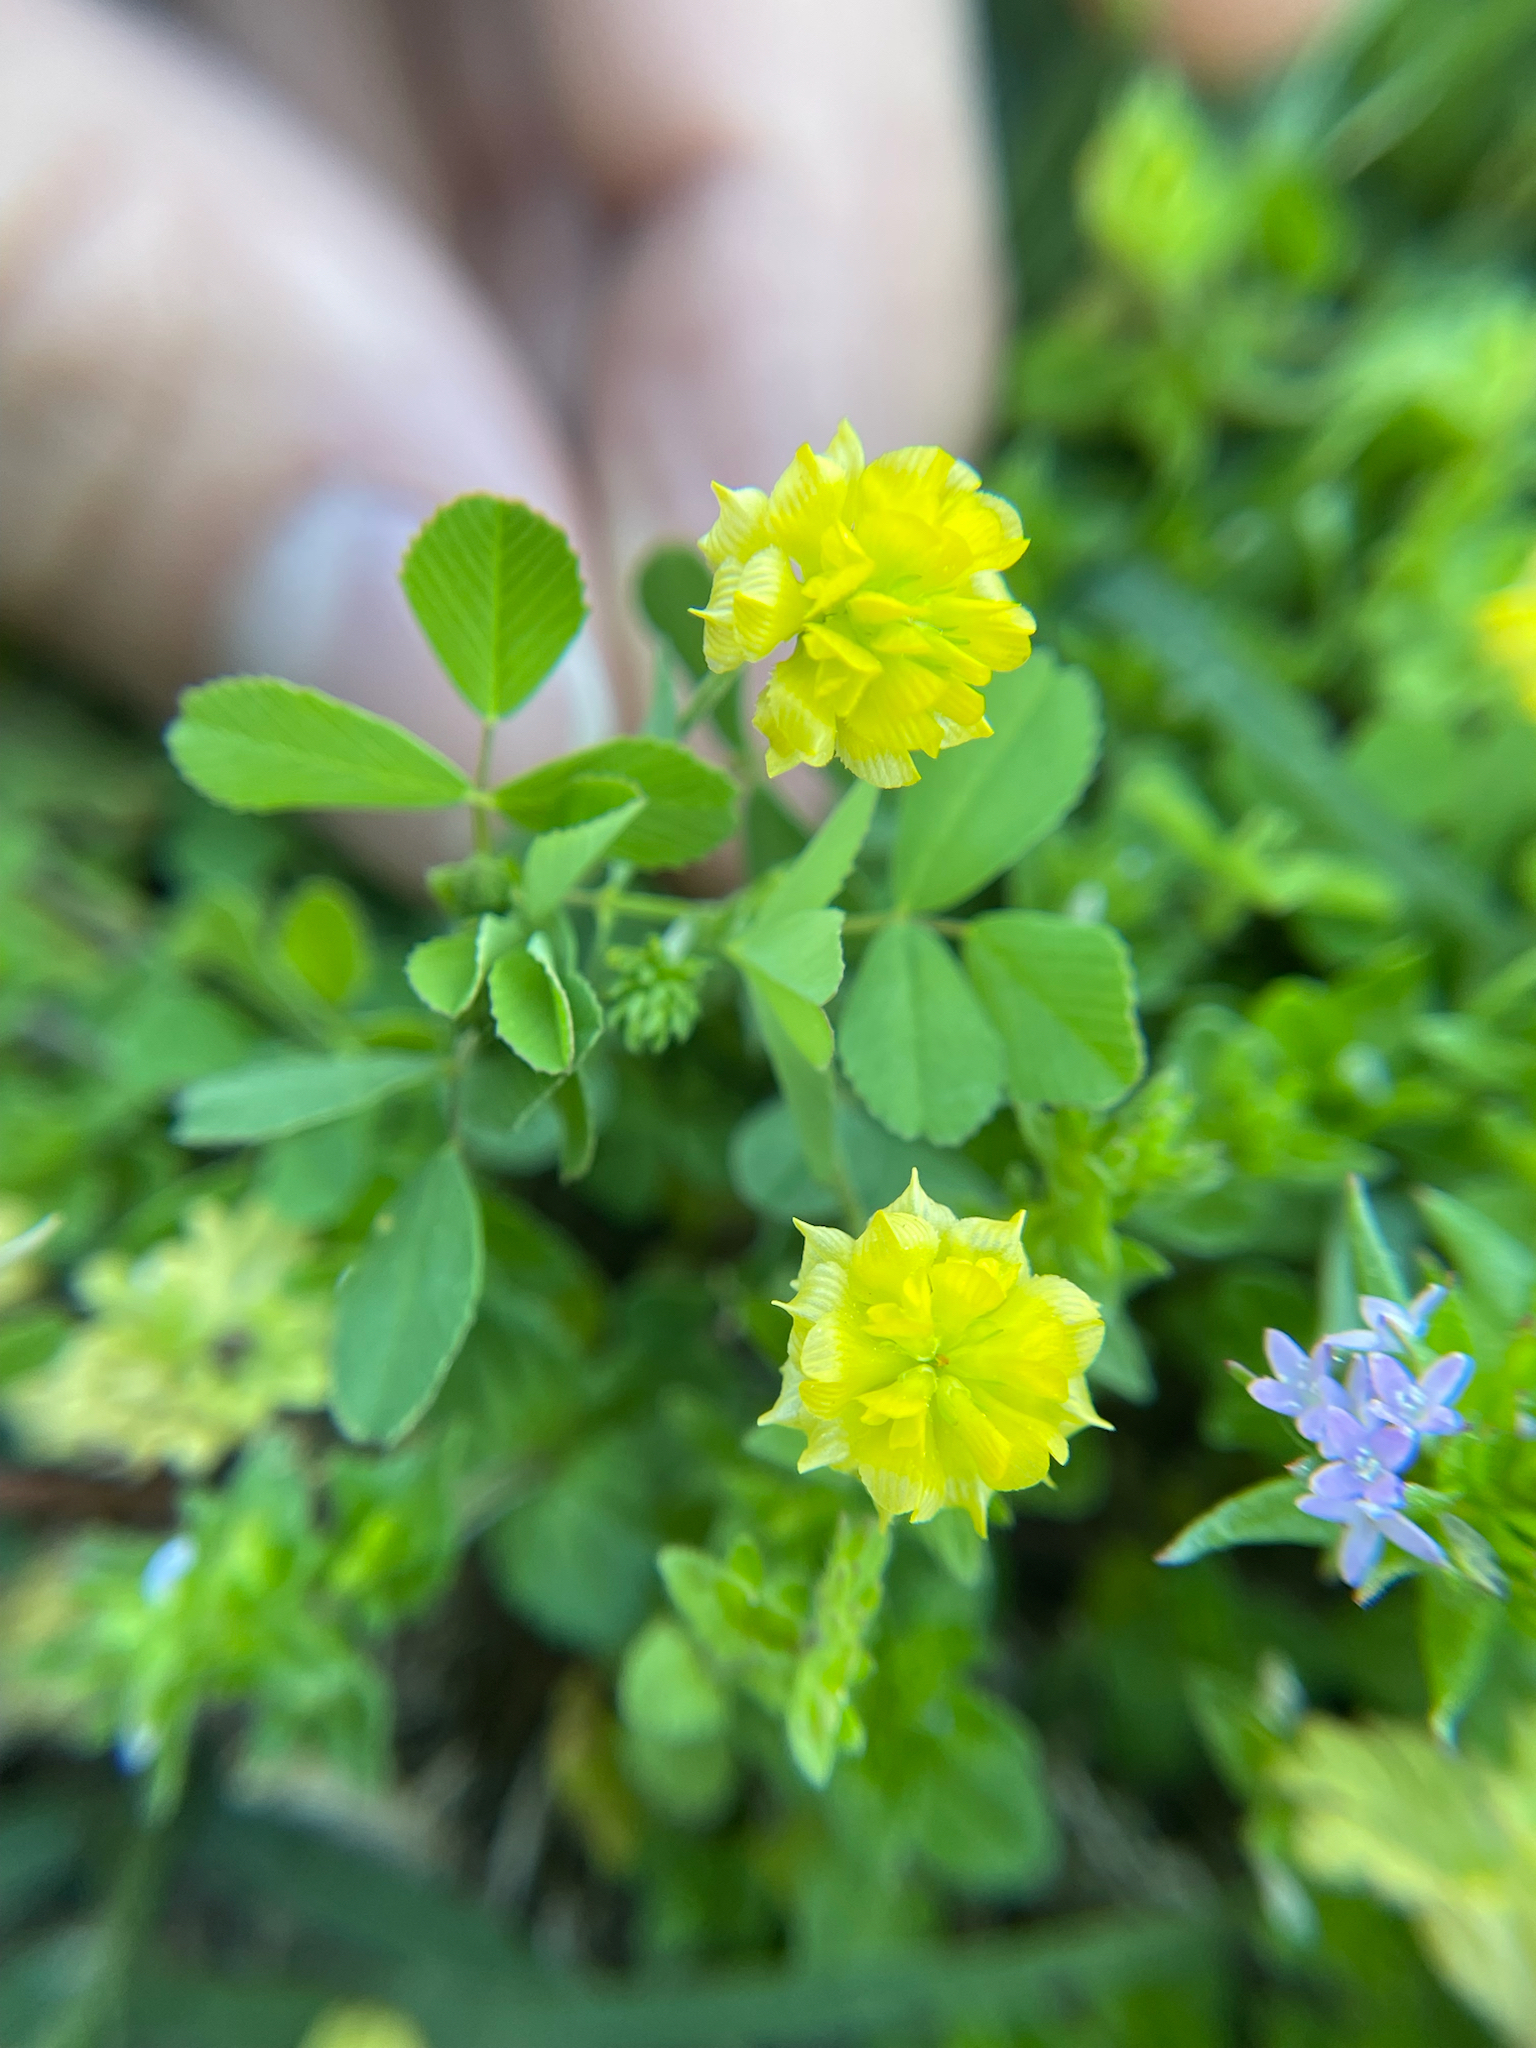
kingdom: Plantae
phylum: Tracheophyta
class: Magnoliopsida
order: Fabales
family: Fabaceae
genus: Trifolium
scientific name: Trifolium campestre
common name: Field clover
